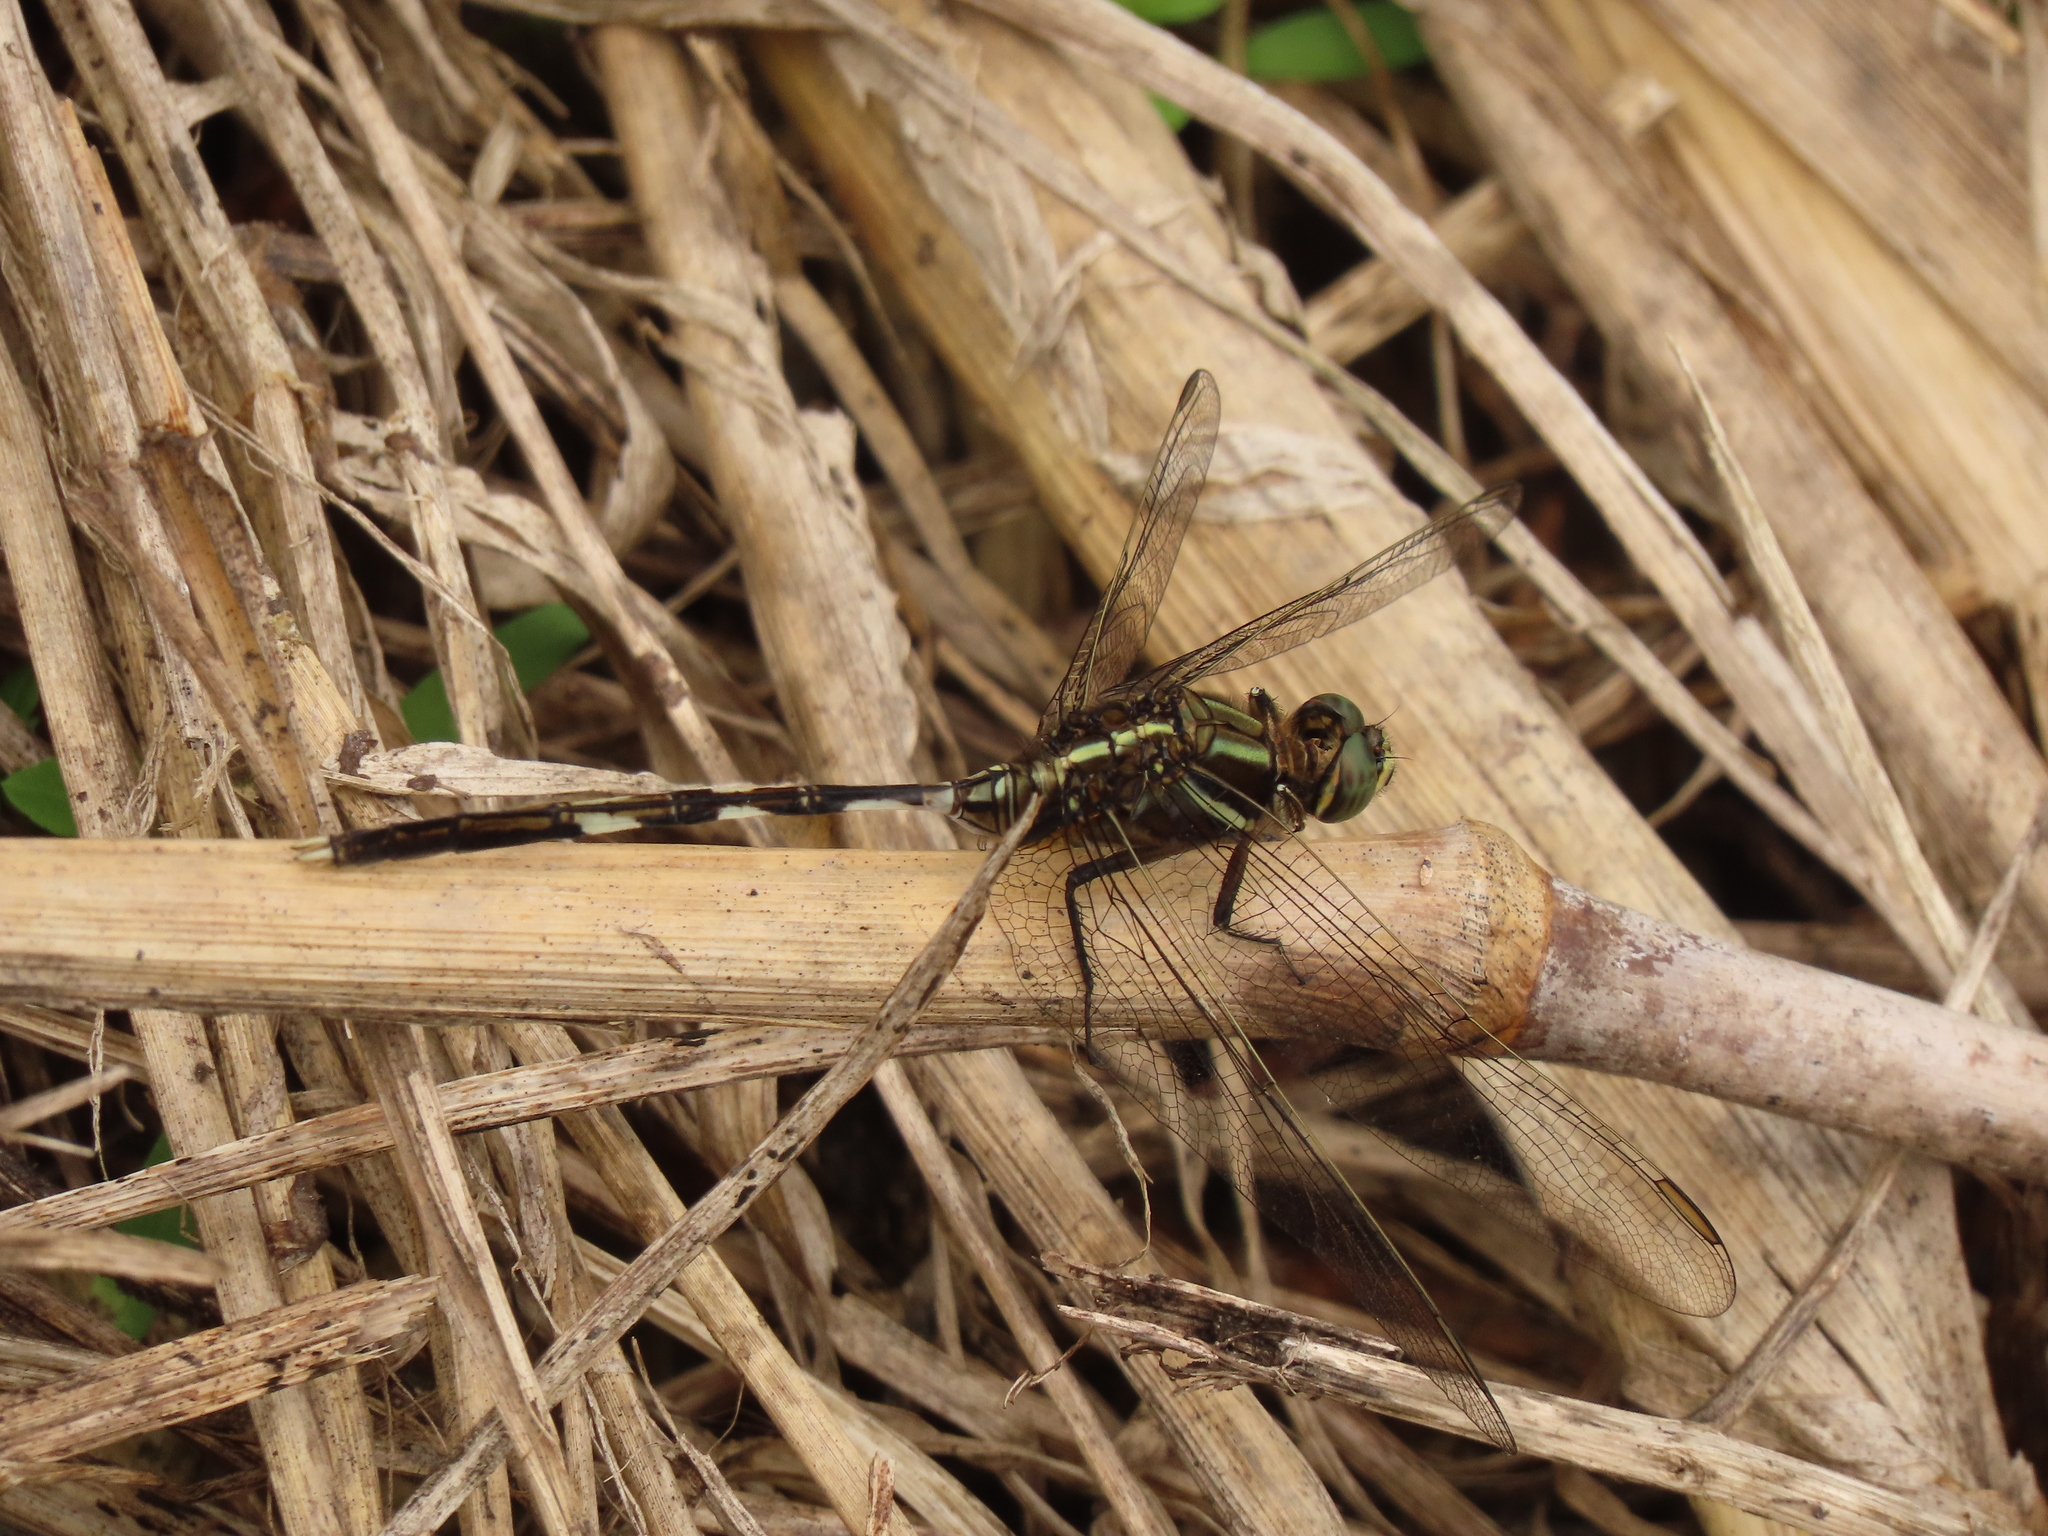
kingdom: Animalia
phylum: Arthropoda
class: Insecta
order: Odonata
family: Libellulidae
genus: Orthetrum
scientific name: Orthetrum sabina
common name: Slender skimmer
